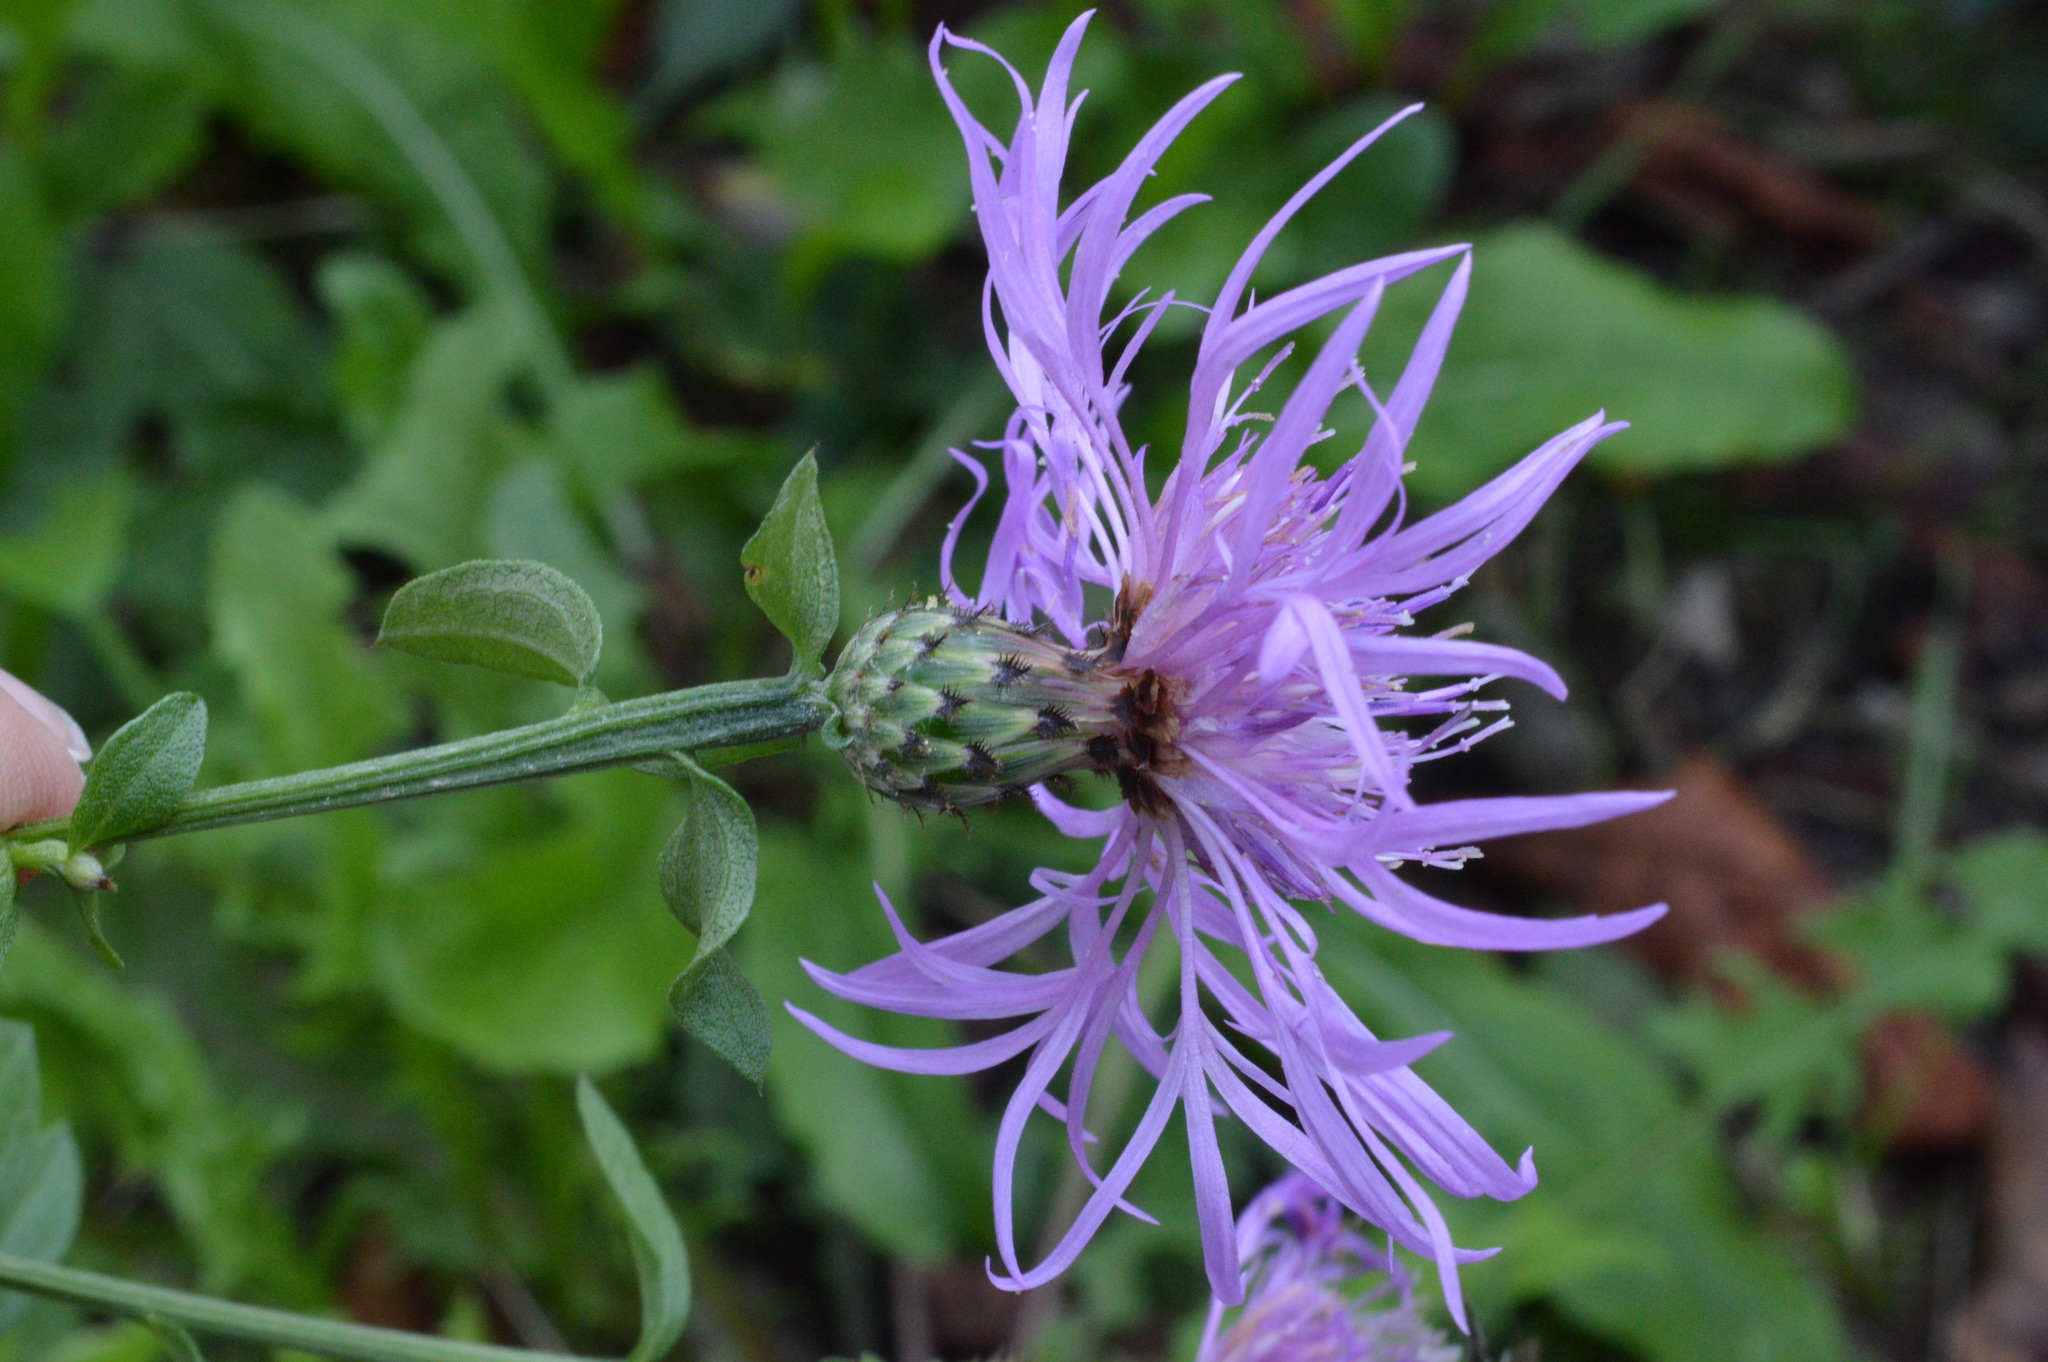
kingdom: Plantae
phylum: Tracheophyta
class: Magnoliopsida
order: Asterales
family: Asteraceae
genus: Centaurea
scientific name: Centaurea nigrescens
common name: Tyrol knapweed
